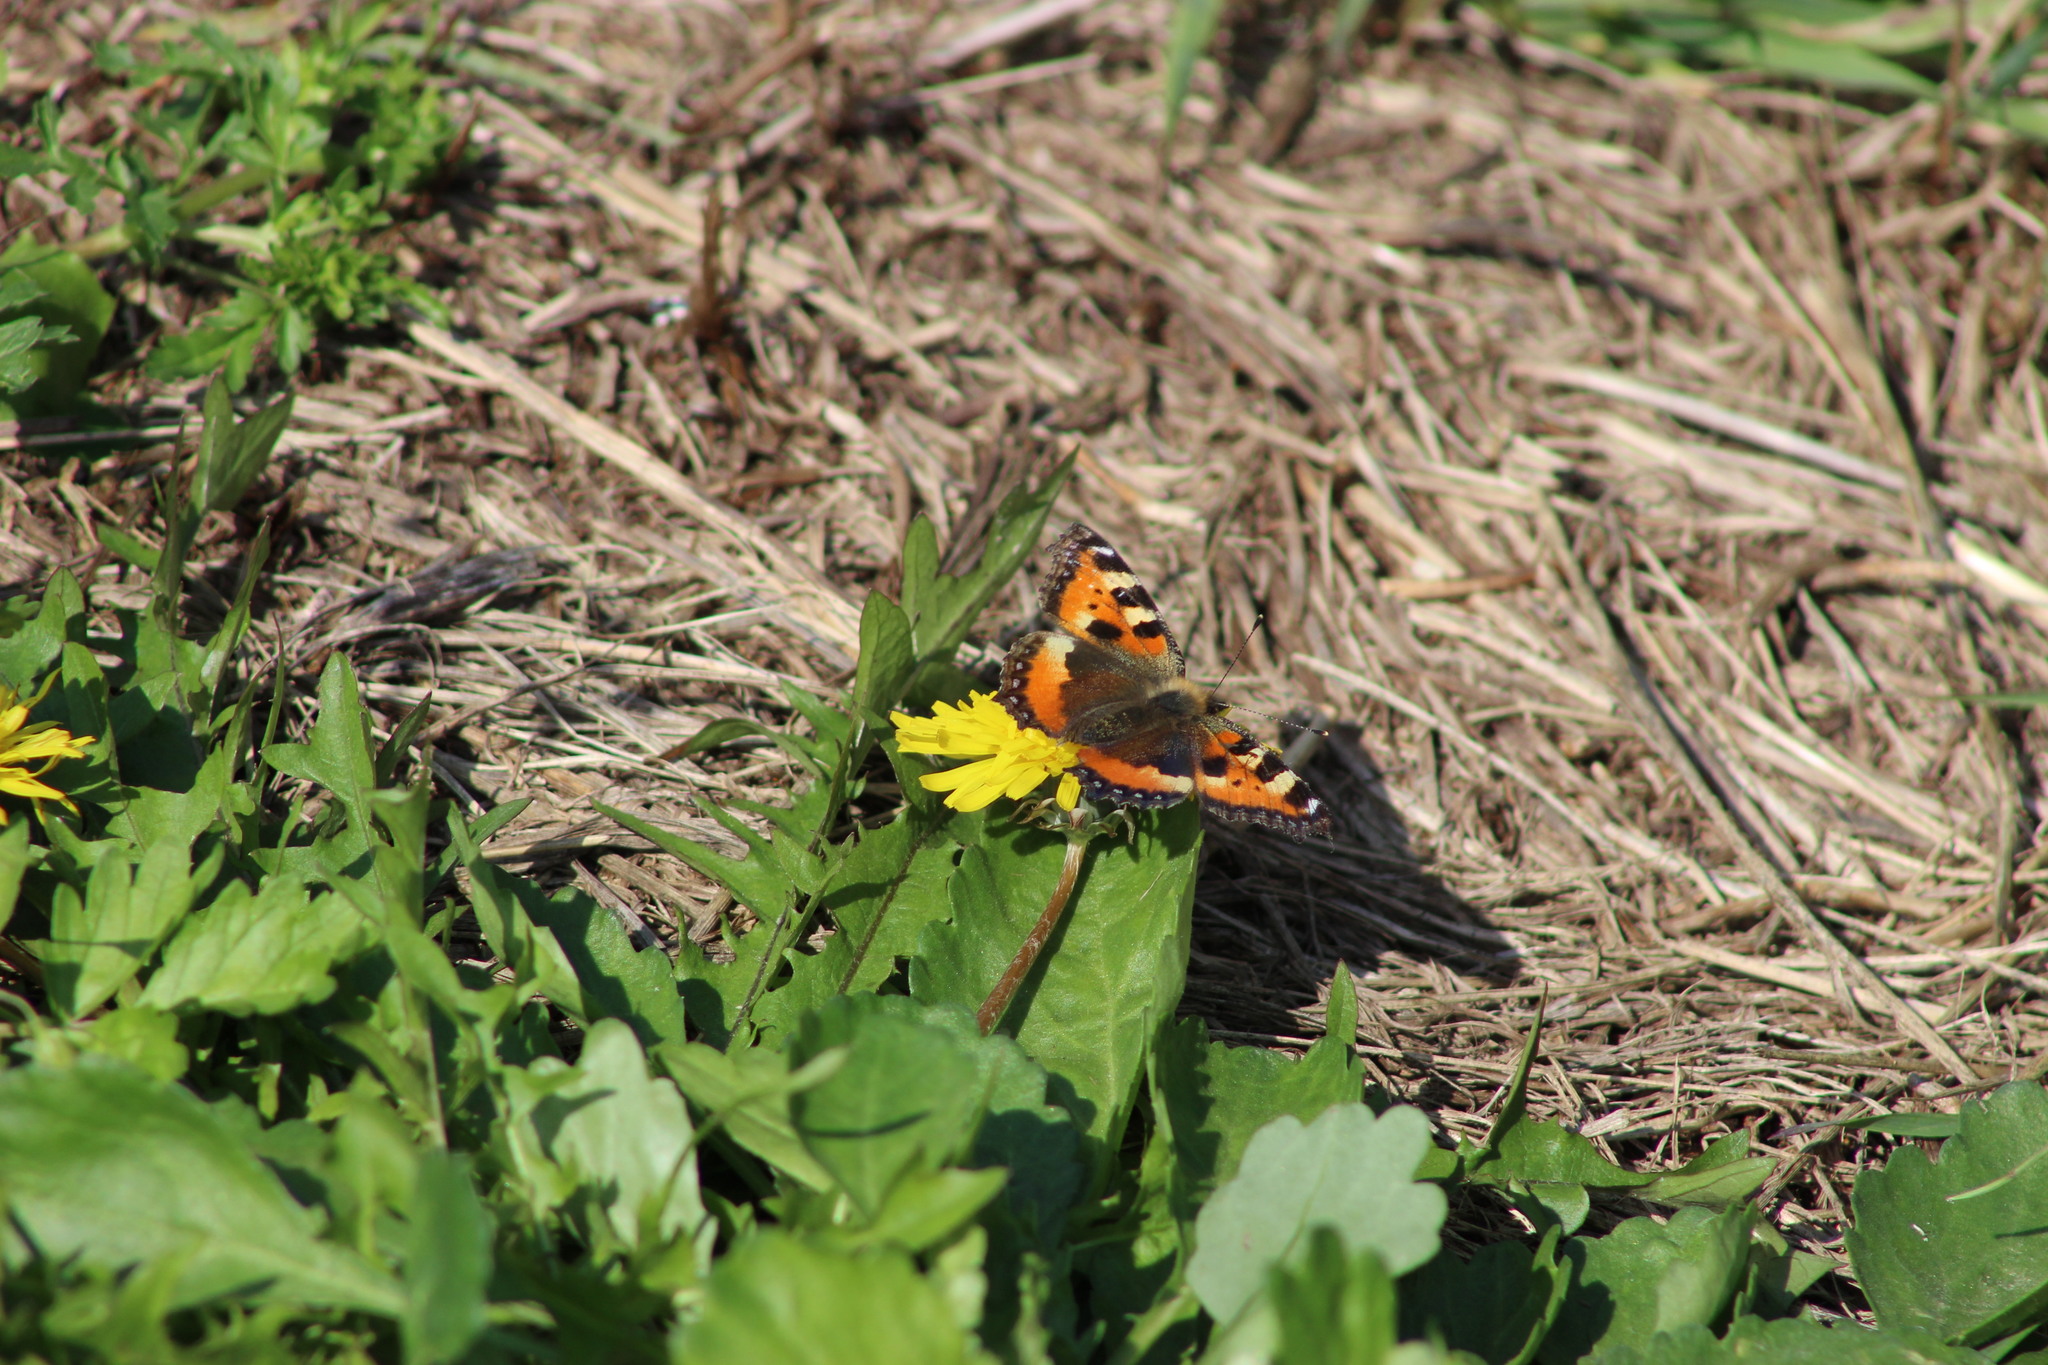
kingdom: Animalia
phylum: Arthropoda
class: Insecta
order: Lepidoptera
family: Nymphalidae
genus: Aglais
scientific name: Aglais urticae
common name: Small tortoiseshell
